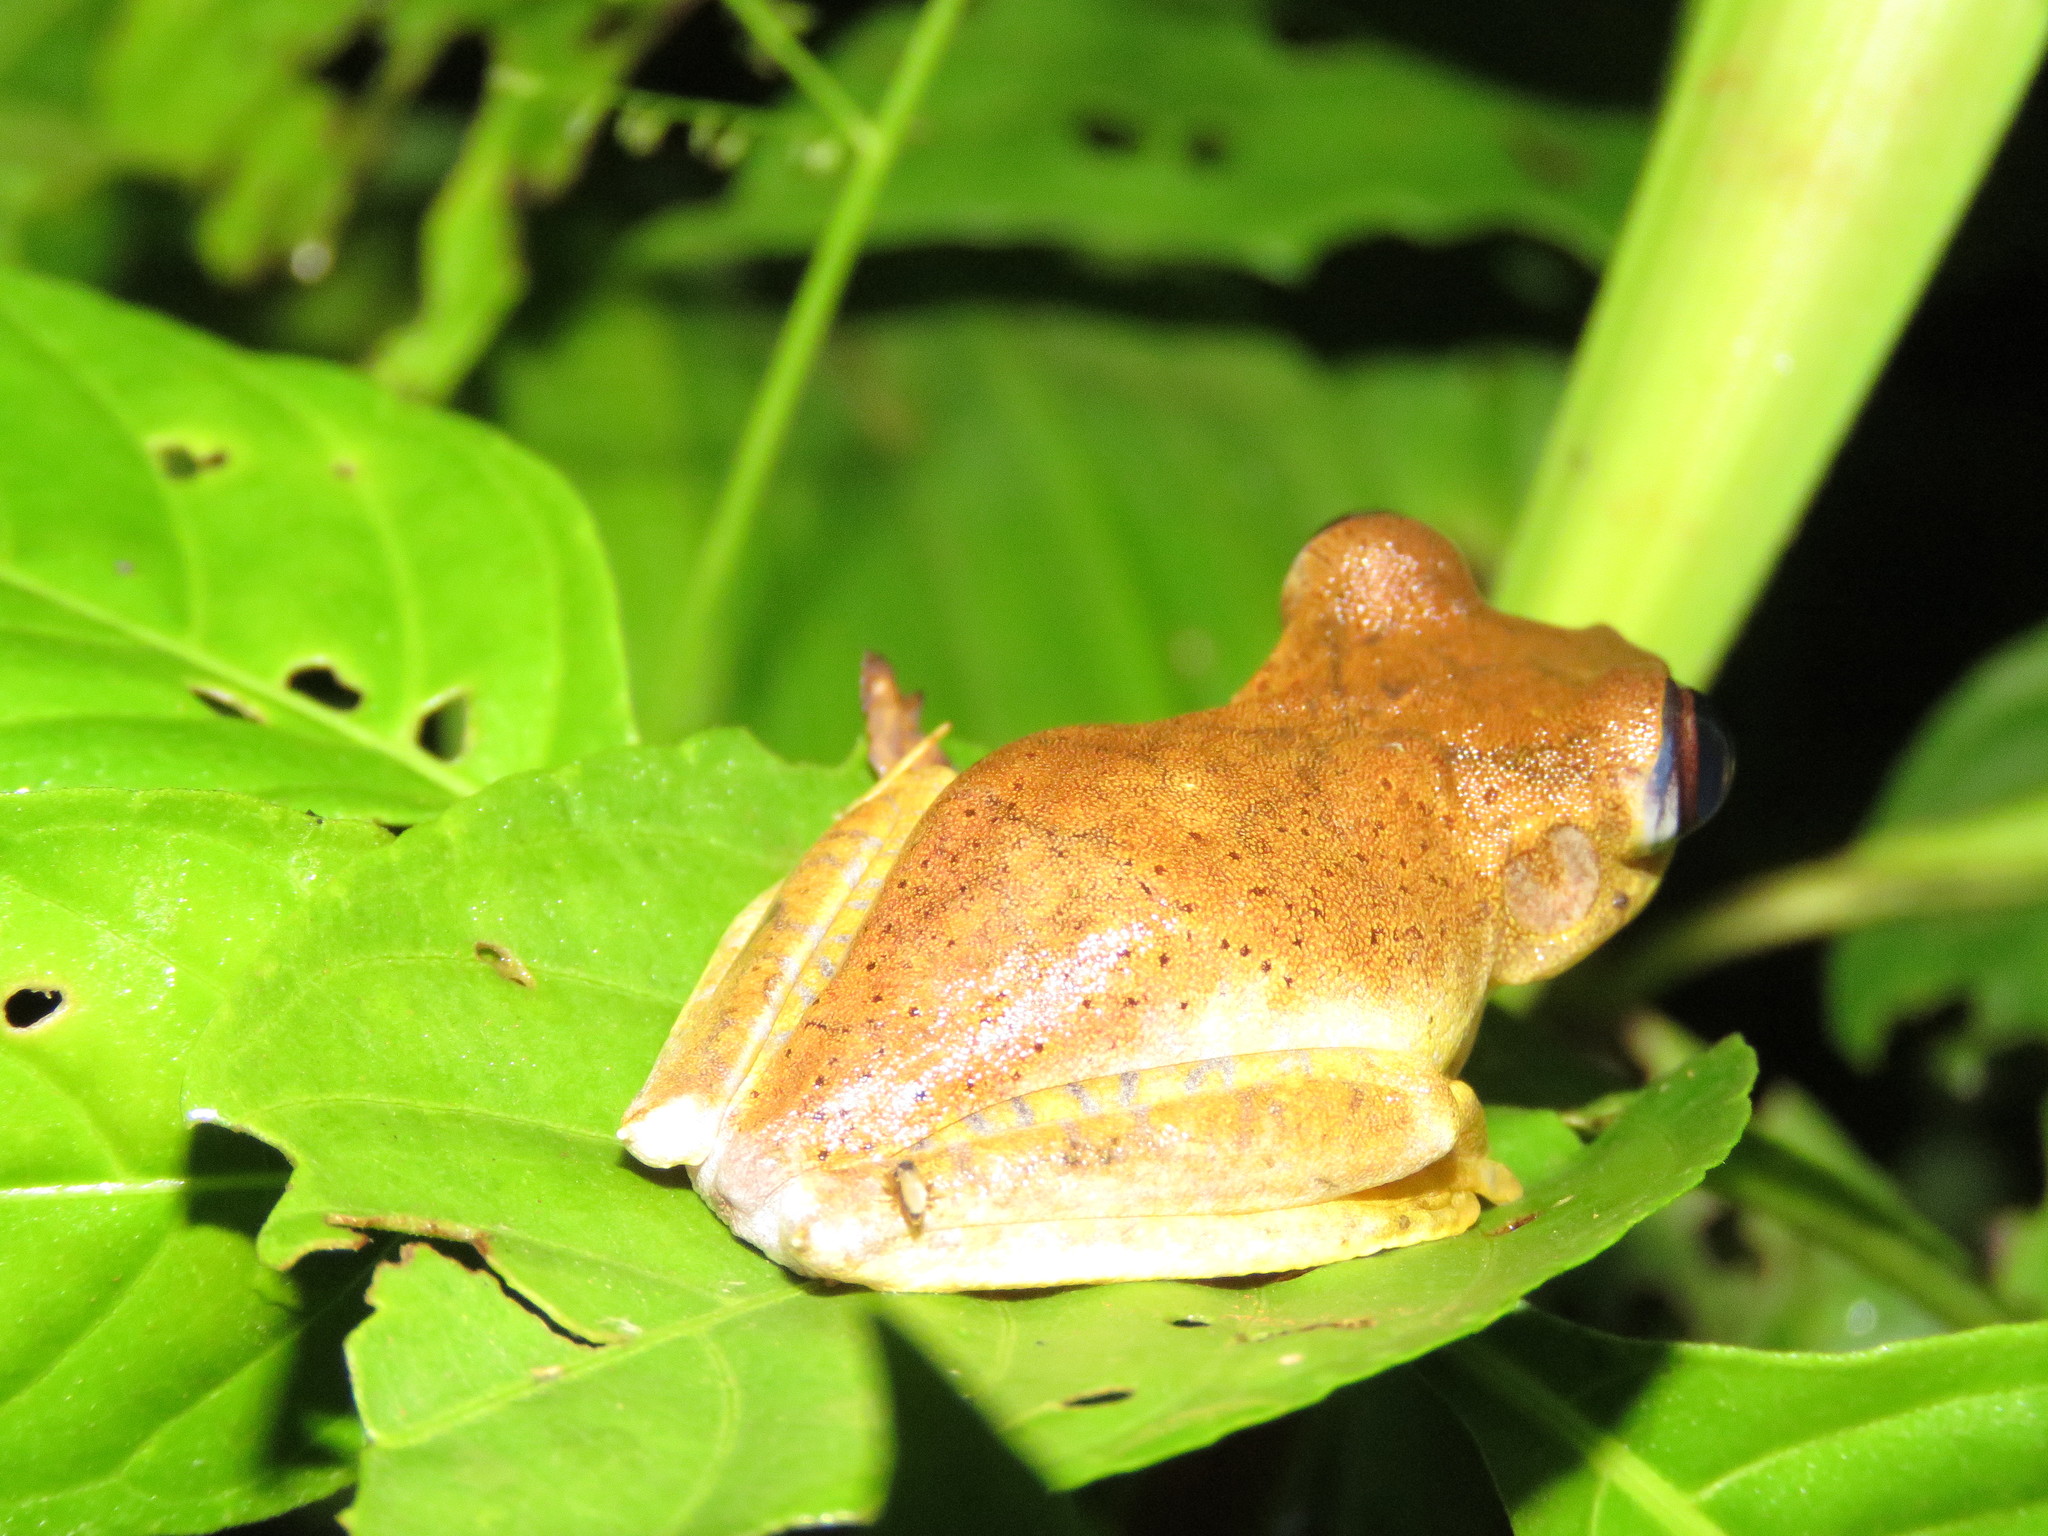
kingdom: Animalia
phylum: Chordata
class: Amphibia
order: Anura
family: Hylidae
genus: Boana
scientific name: Boana geographica
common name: Map treefrog
